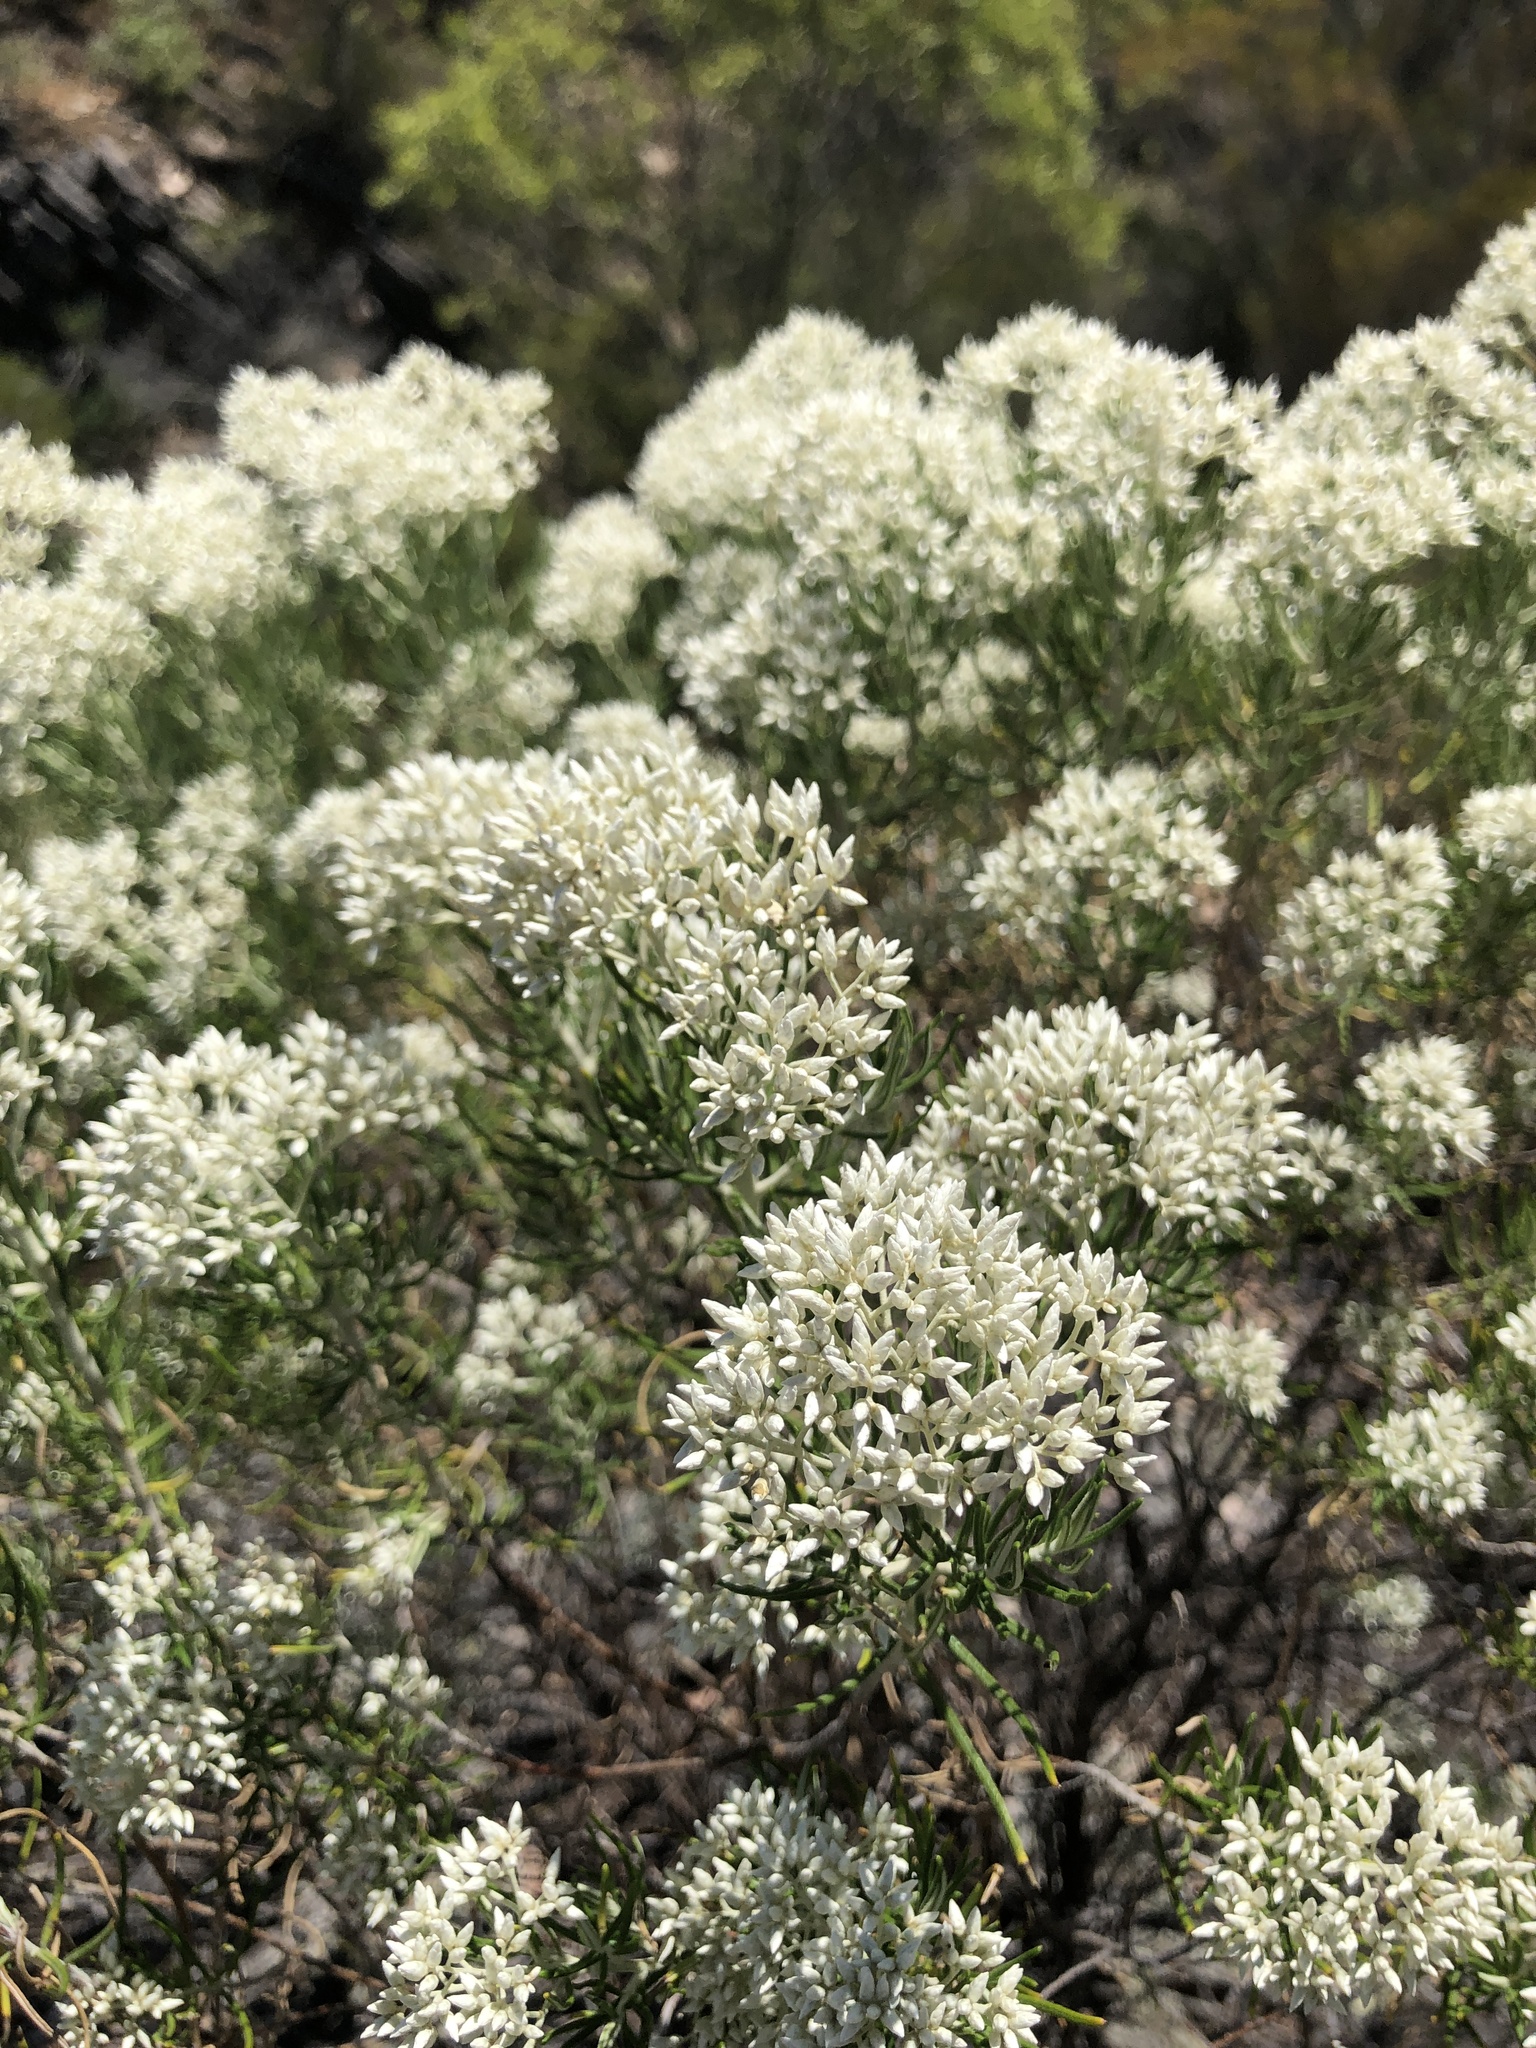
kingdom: Plantae
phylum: Tracheophyta
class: Magnoliopsida
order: Asterales
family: Asteraceae
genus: Cassinia
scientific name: Cassinia complanata
